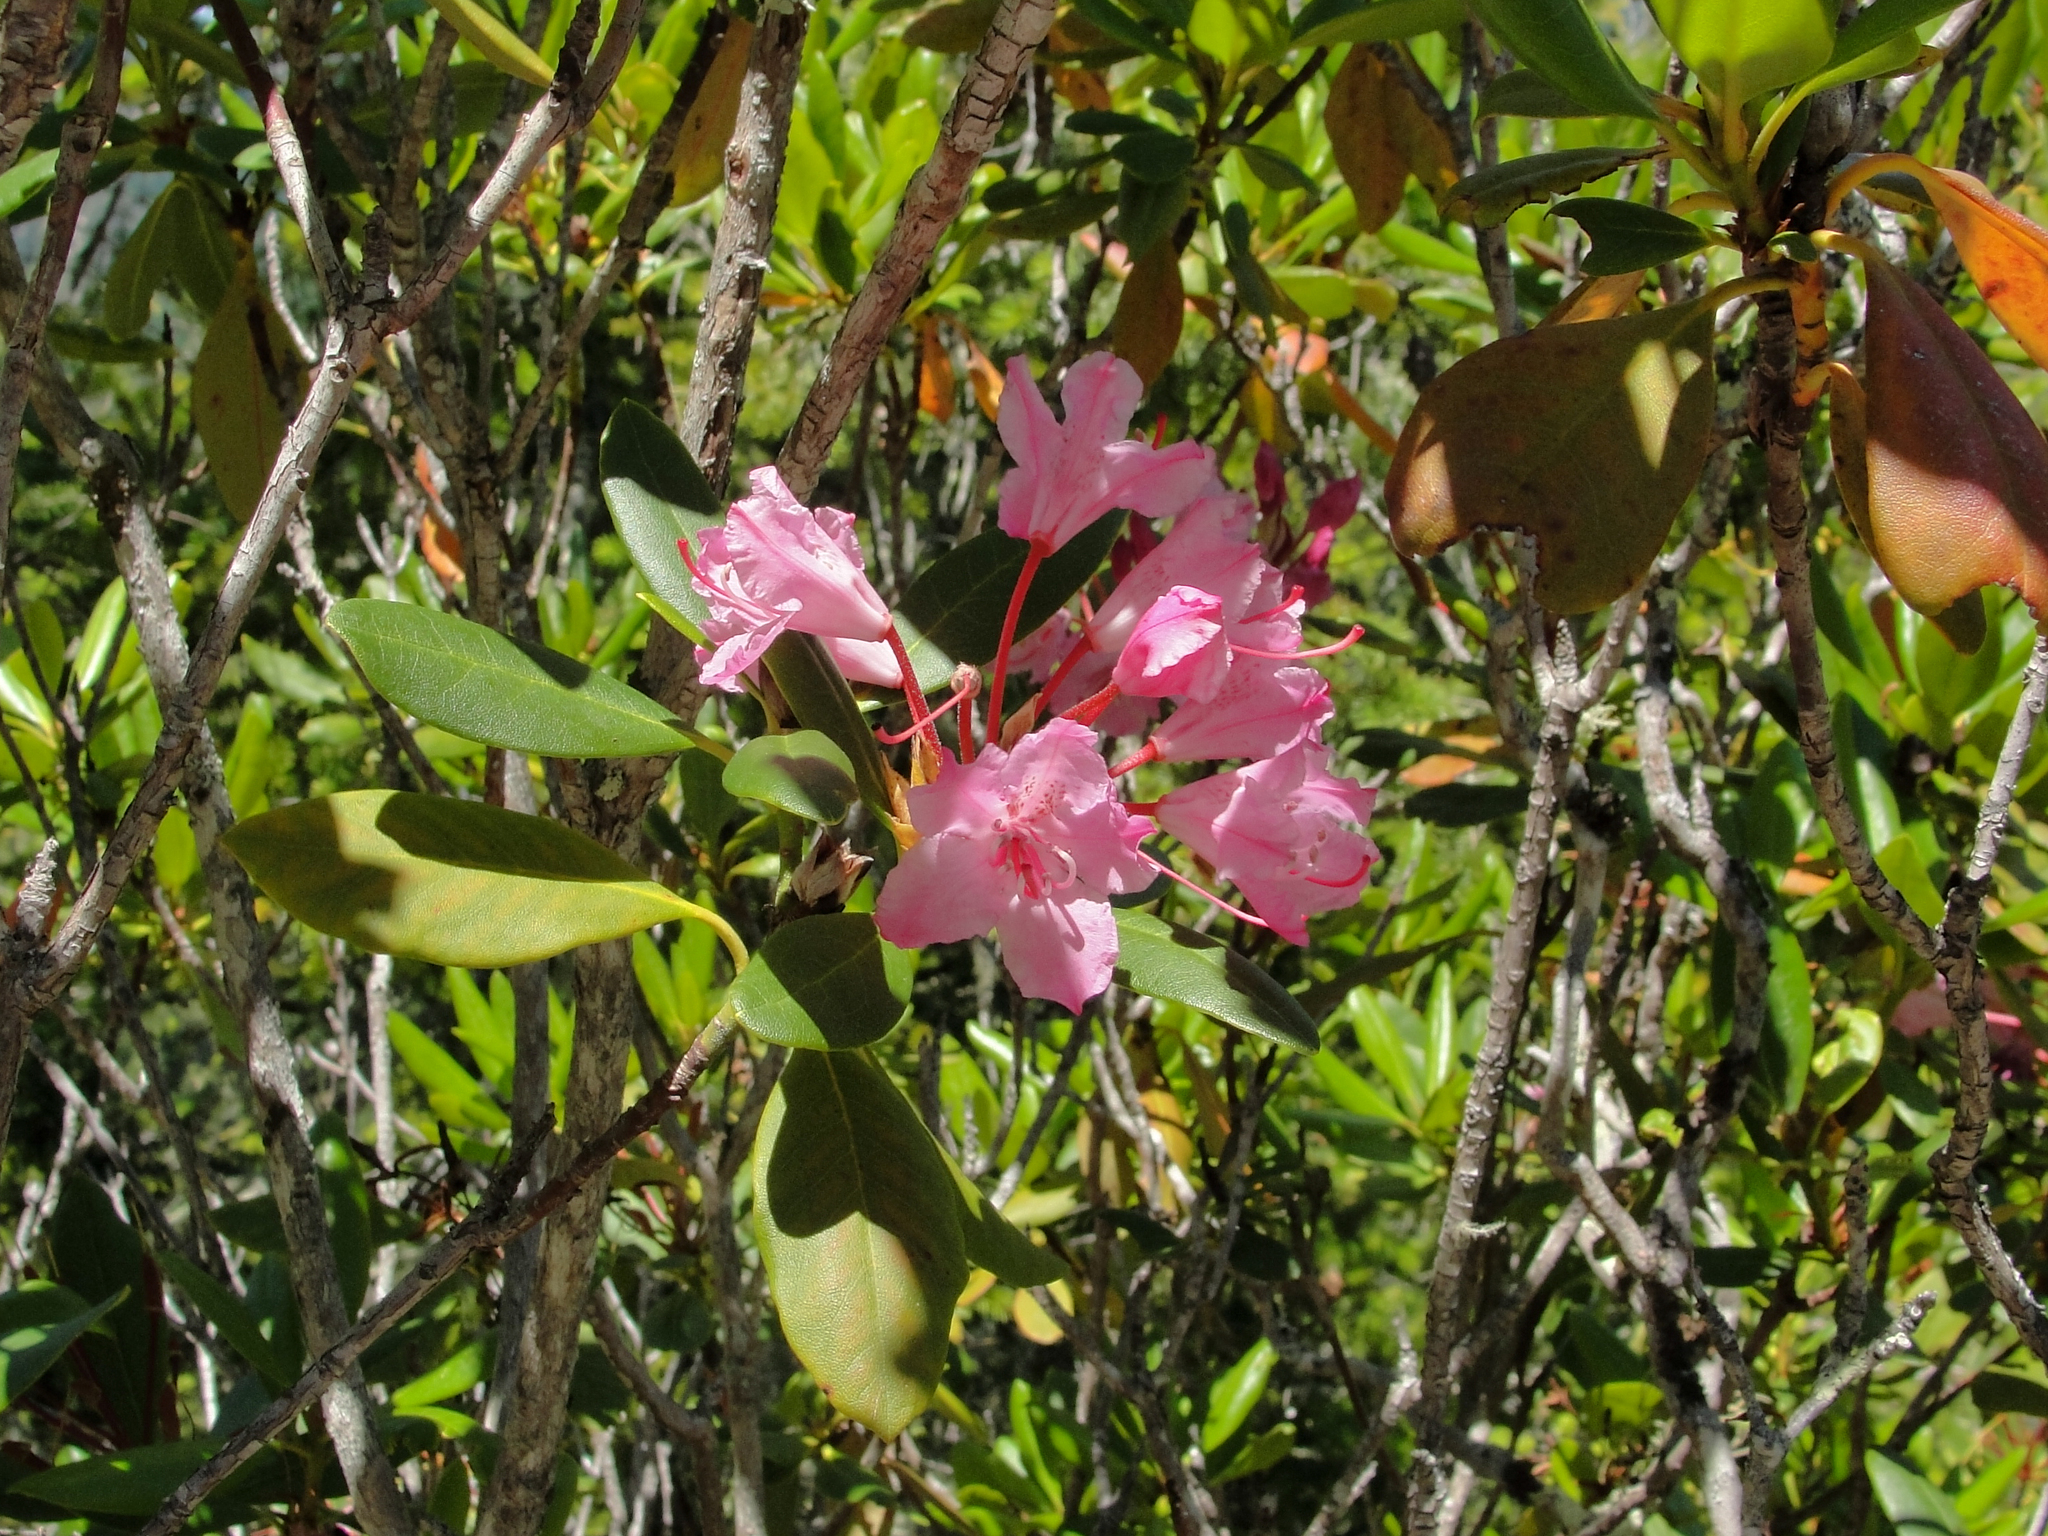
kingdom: Plantae
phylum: Tracheophyta
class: Magnoliopsida
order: Ericales
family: Ericaceae
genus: Rhododendron
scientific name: Rhododendron macrophyllum
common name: California rose bay
